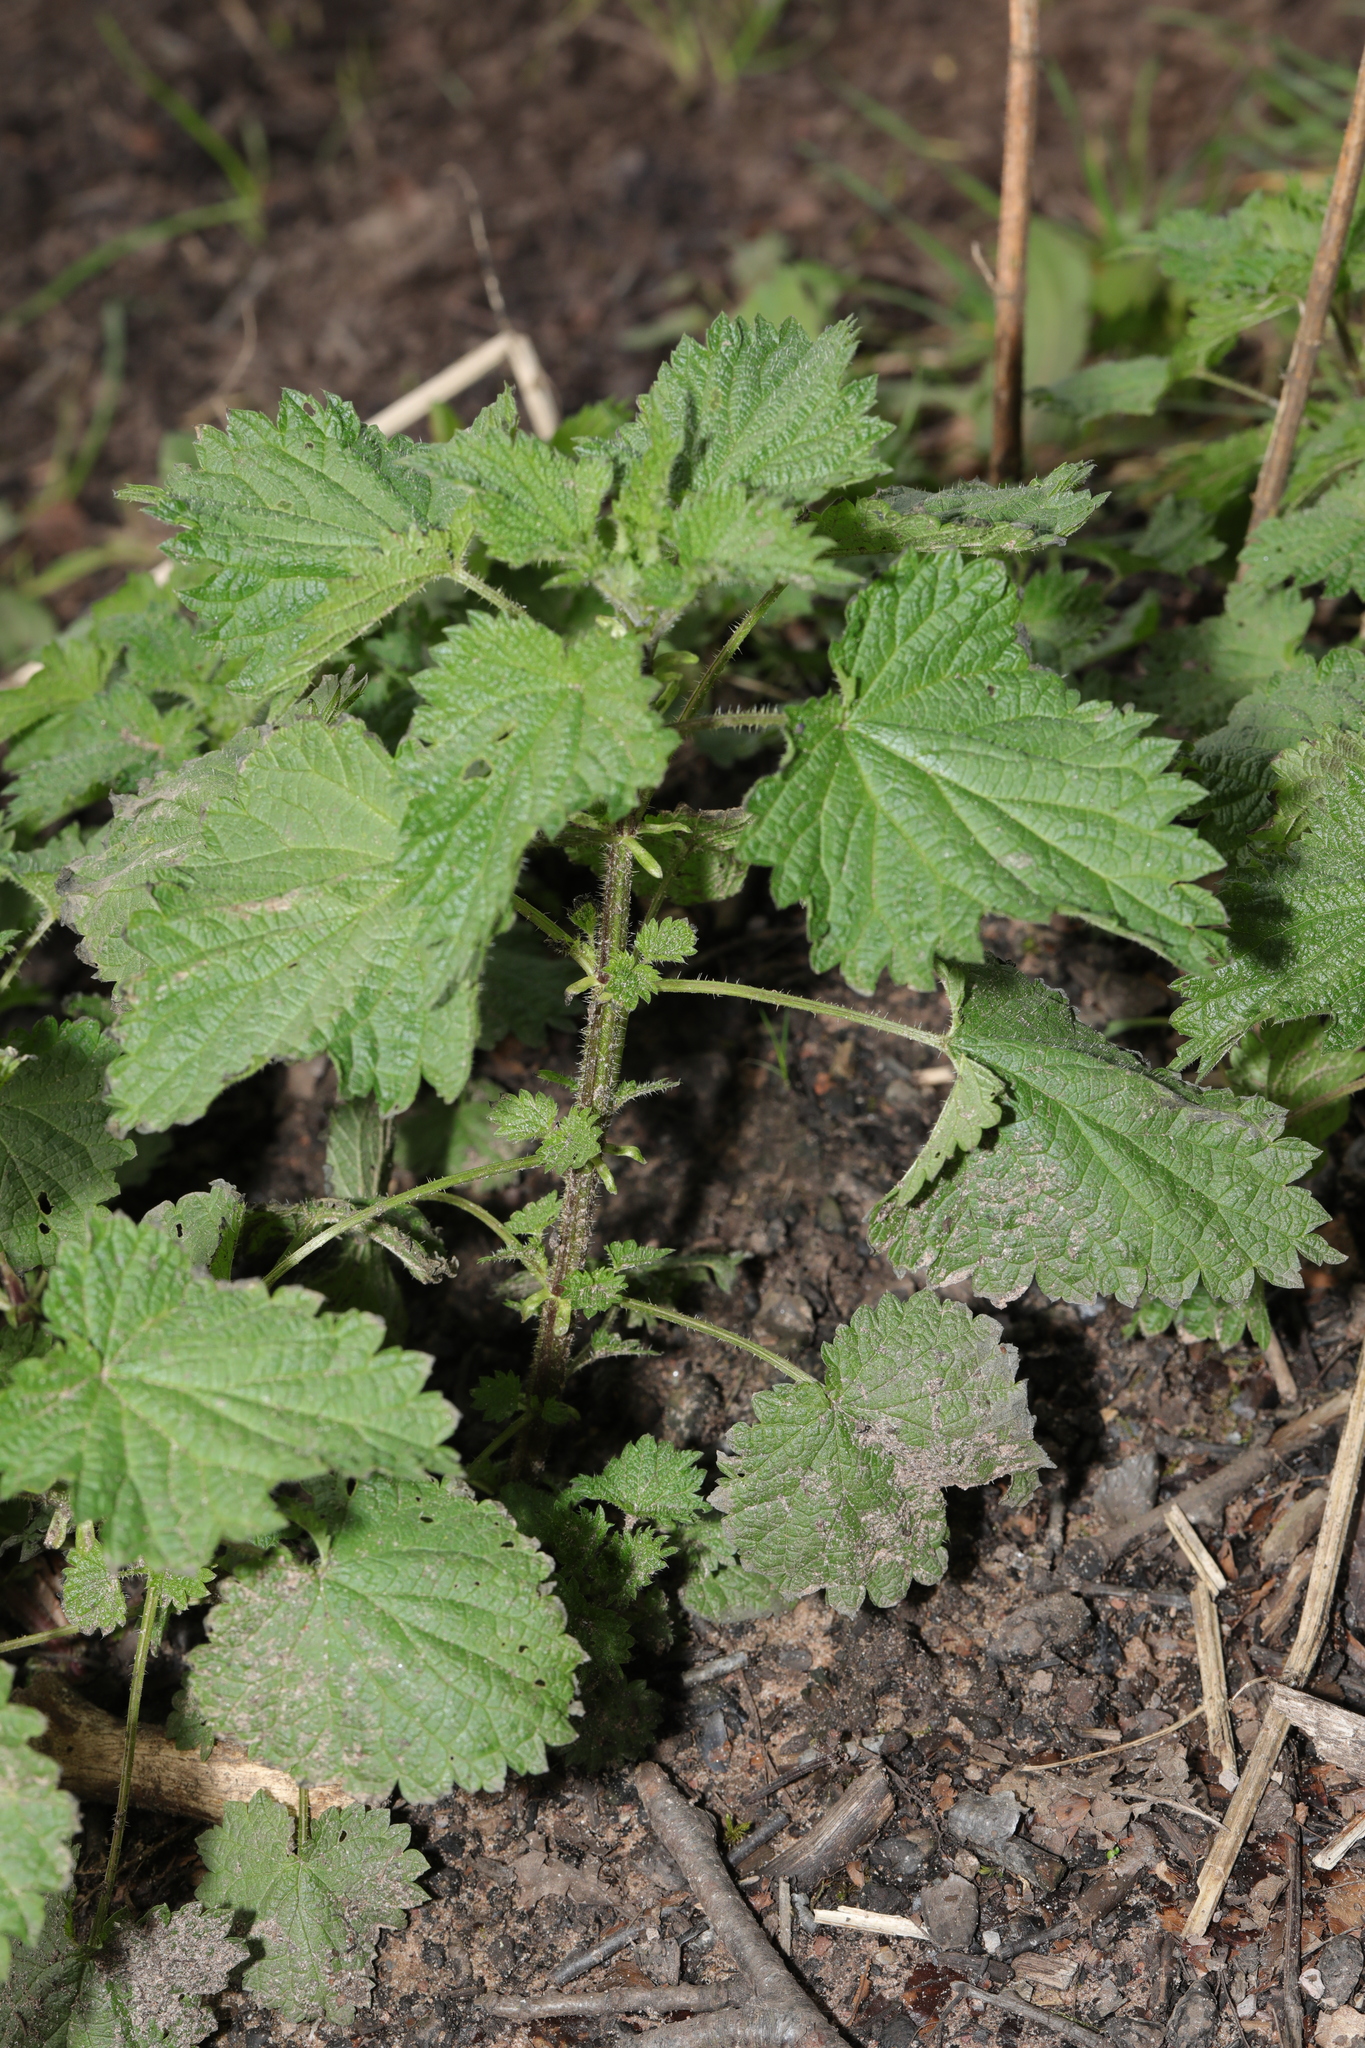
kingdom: Plantae
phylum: Tracheophyta
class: Magnoliopsida
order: Rosales
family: Urticaceae
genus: Urtica
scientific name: Urtica dioica
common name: Common nettle
